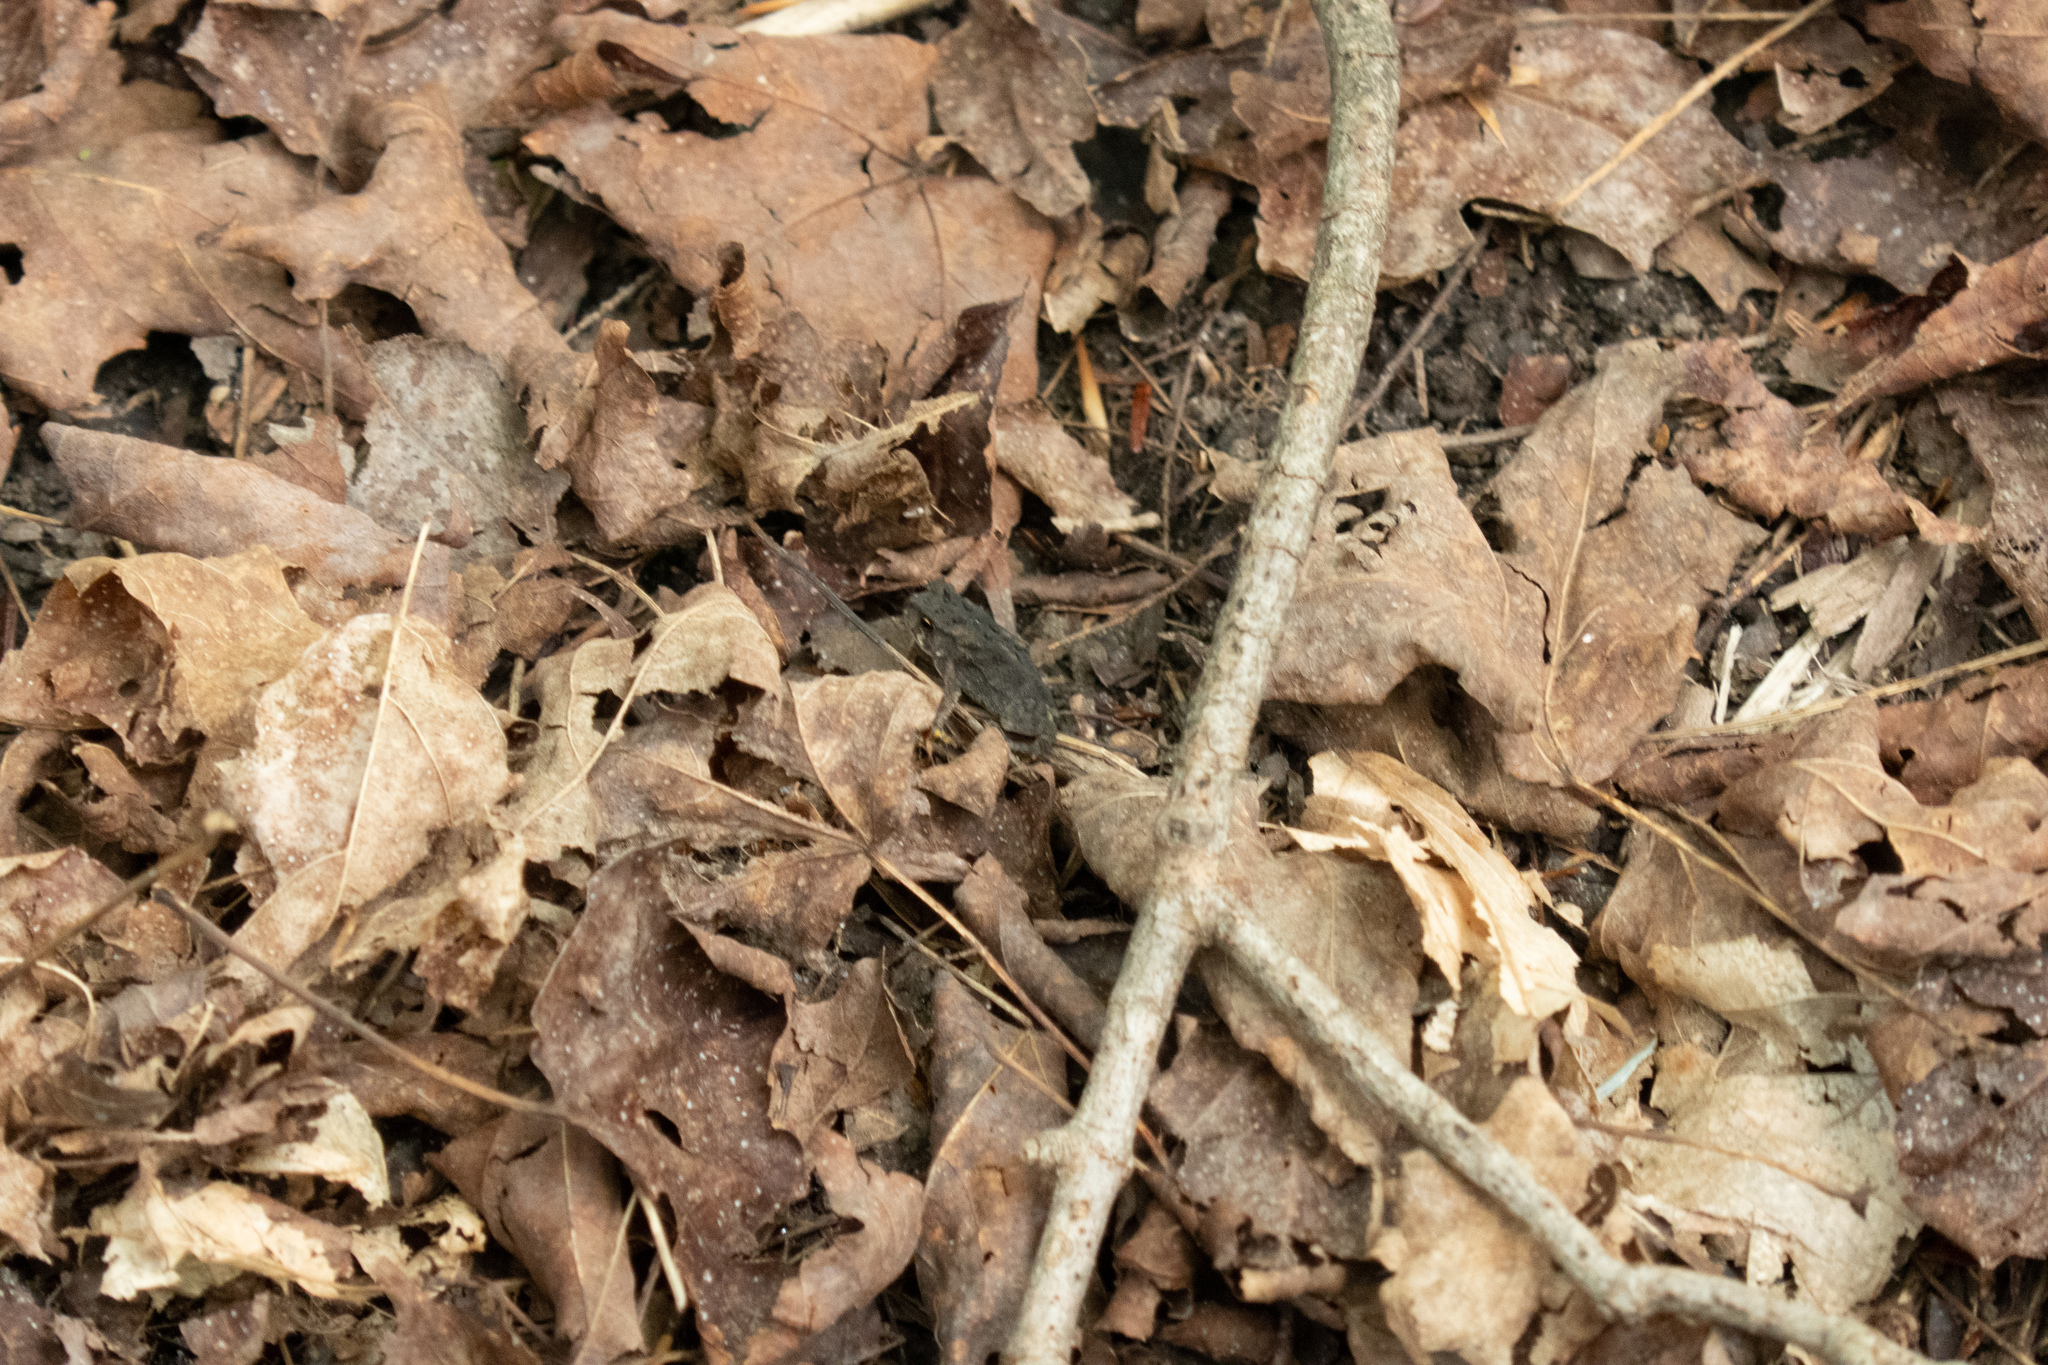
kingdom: Animalia
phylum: Chordata
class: Amphibia
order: Anura
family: Bufonidae
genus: Anaxyrus
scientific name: Anaxyrus americanus
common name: American toad
